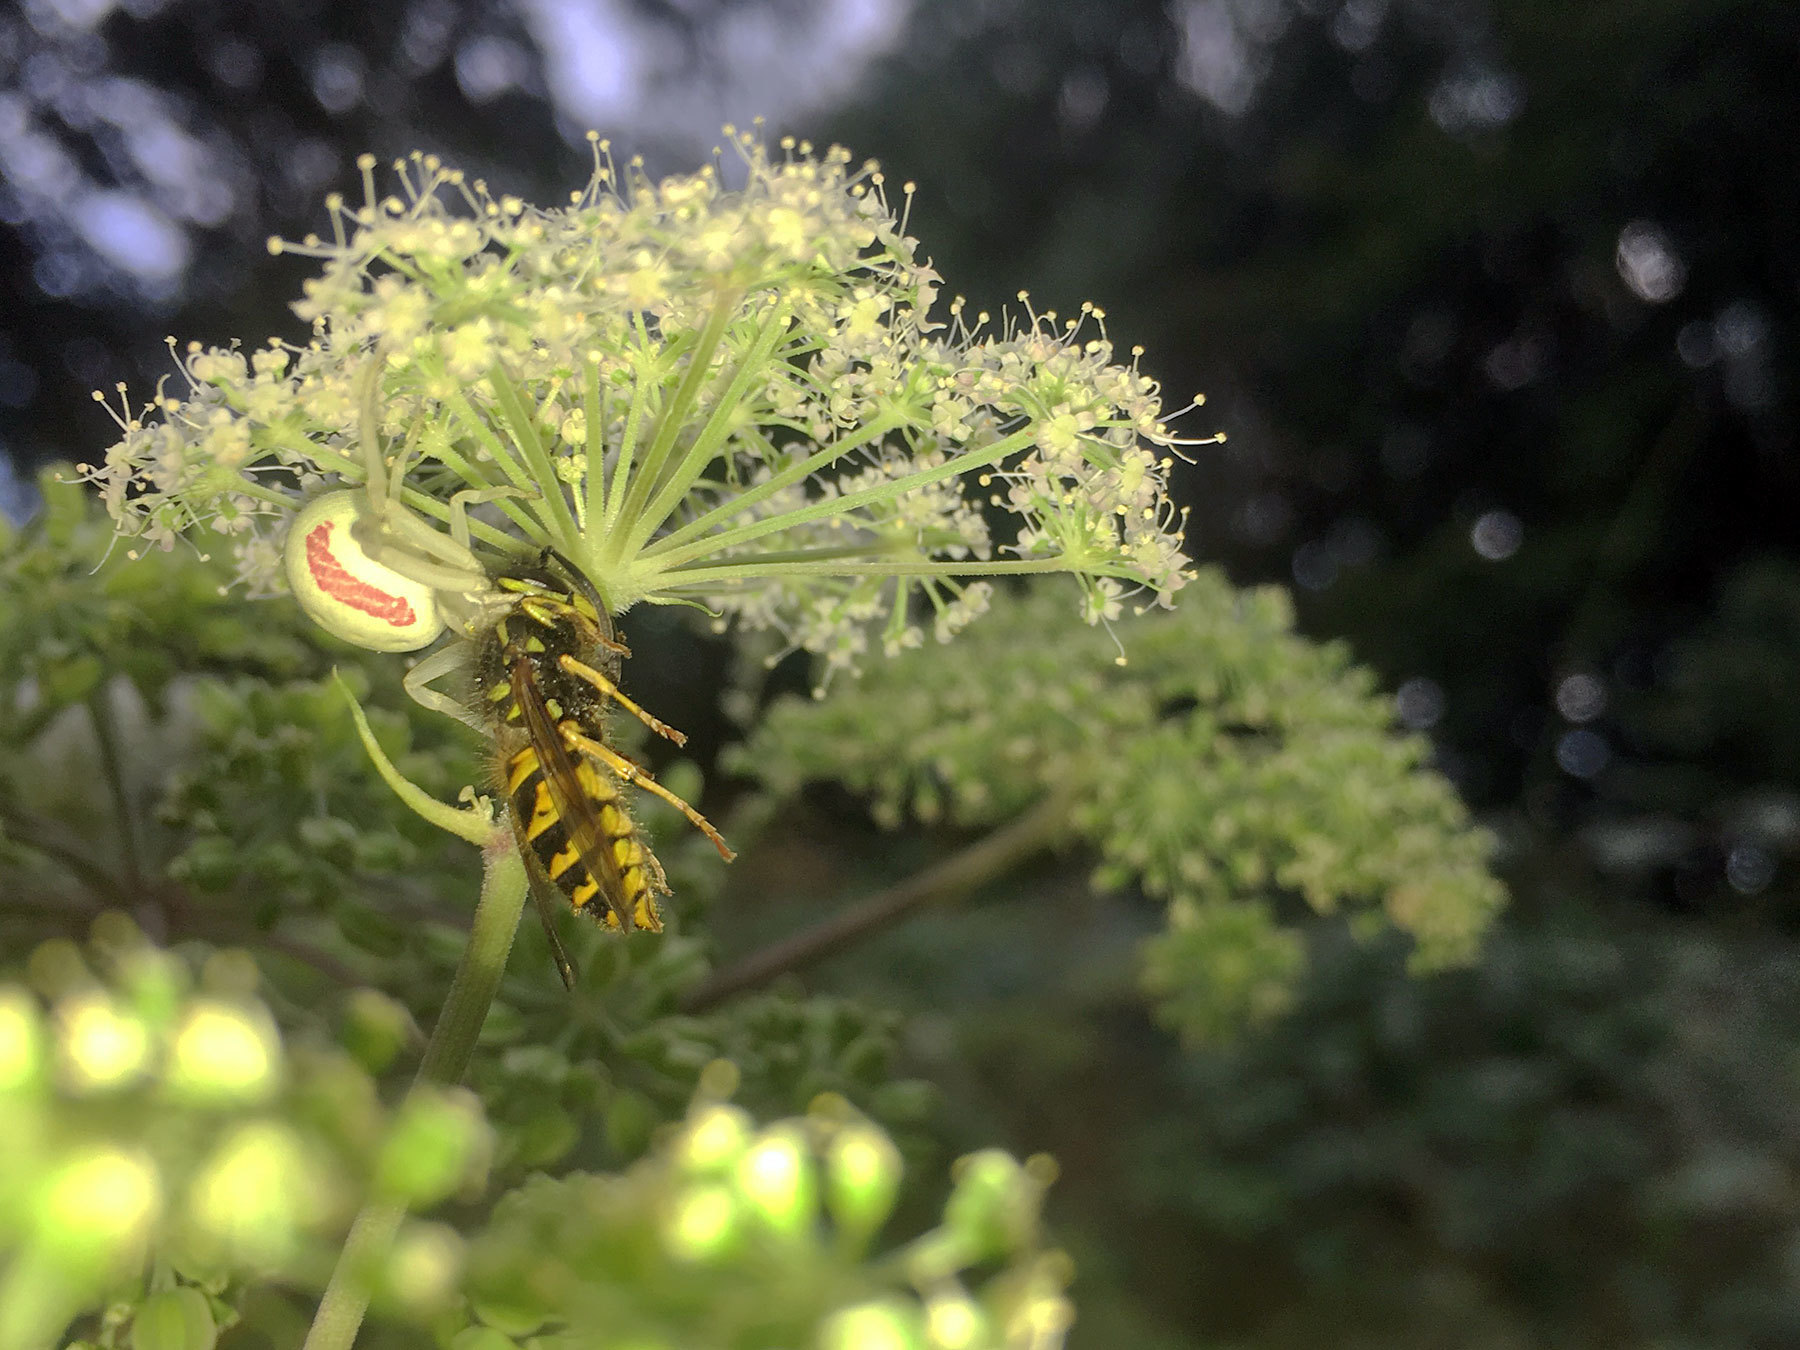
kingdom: Animalia
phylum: Arthropoda
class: Arachnida
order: Araneae
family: Thomisidae
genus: Misumena
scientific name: Misumena vatia
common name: Goldenrod crab spider
